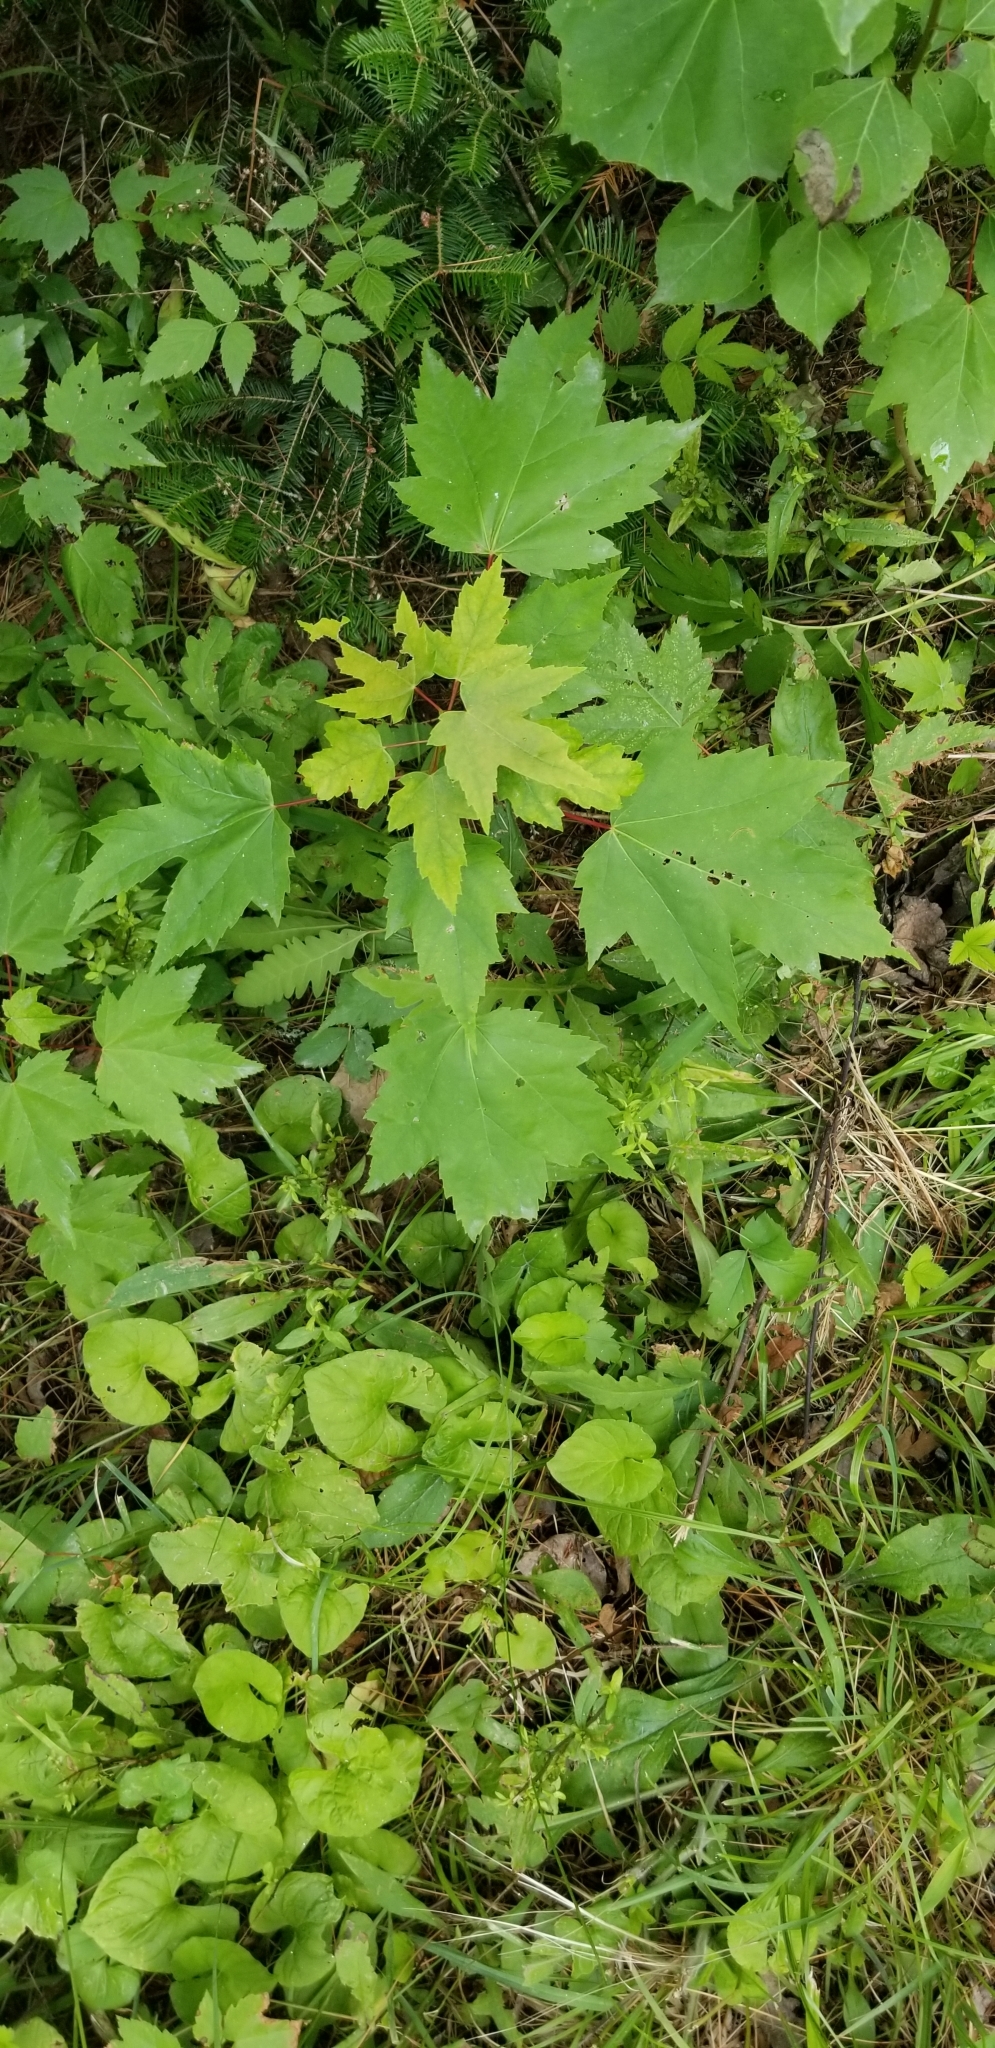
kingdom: Plantae
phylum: Tracheophyta
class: Magnoliopsida
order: Sapindales
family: Sapindaceae
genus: Acer
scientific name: Acer rubrum
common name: Red maple
